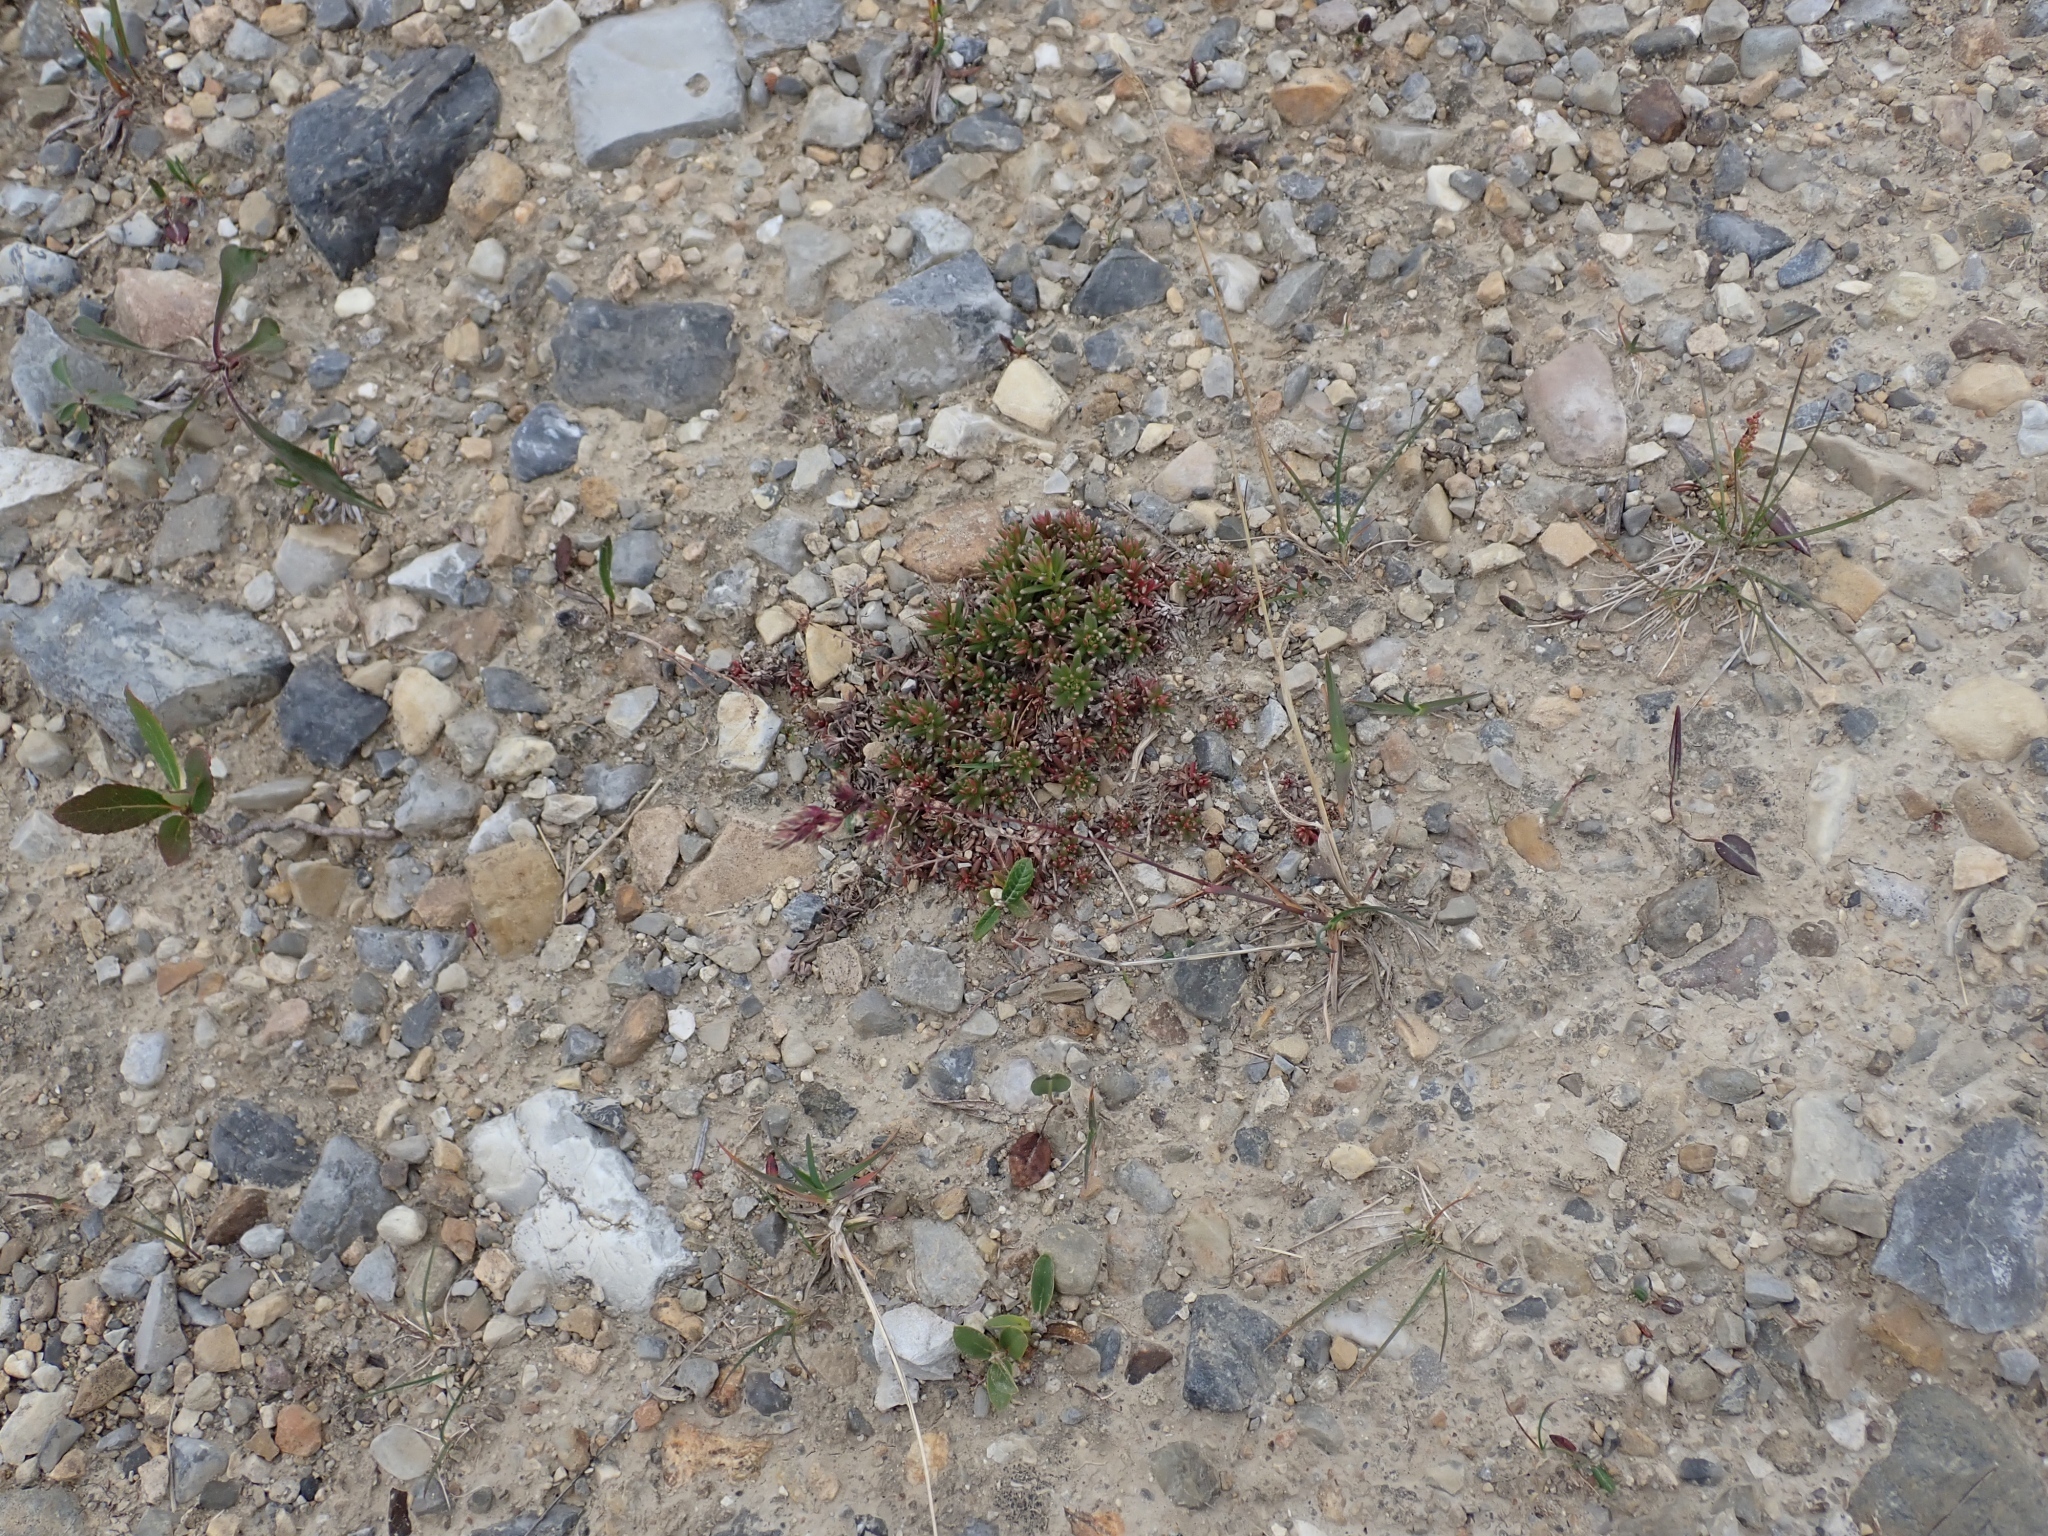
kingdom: Plantae
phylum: Tracheophyta
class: Magnoliopsida
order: Saxifragales
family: Saxifragaceae
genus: Saxifraga
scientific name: Saxifraga aizoides
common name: Yellow mountain saxifrage
